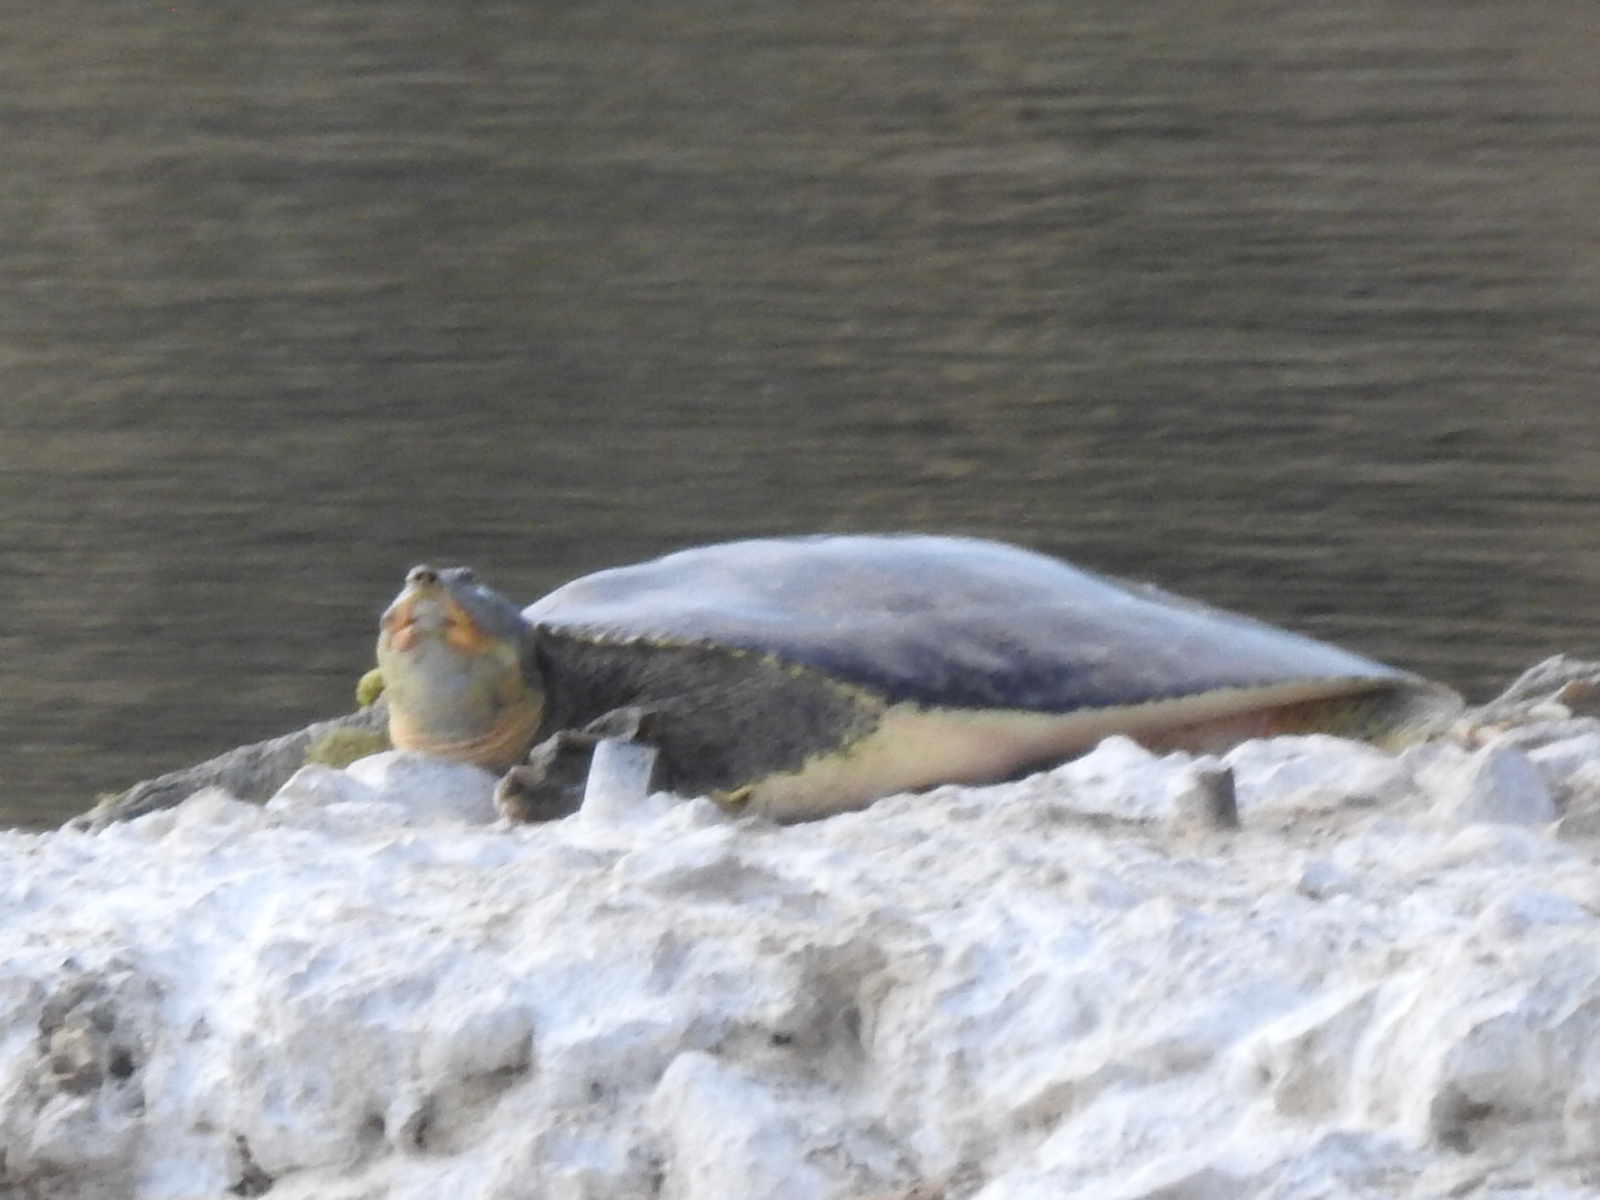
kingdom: Animalia
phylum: Chordata
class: Testudines
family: Trionychidae
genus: Apalone
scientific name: Apalone spinifera
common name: Spiny softshell turtle
